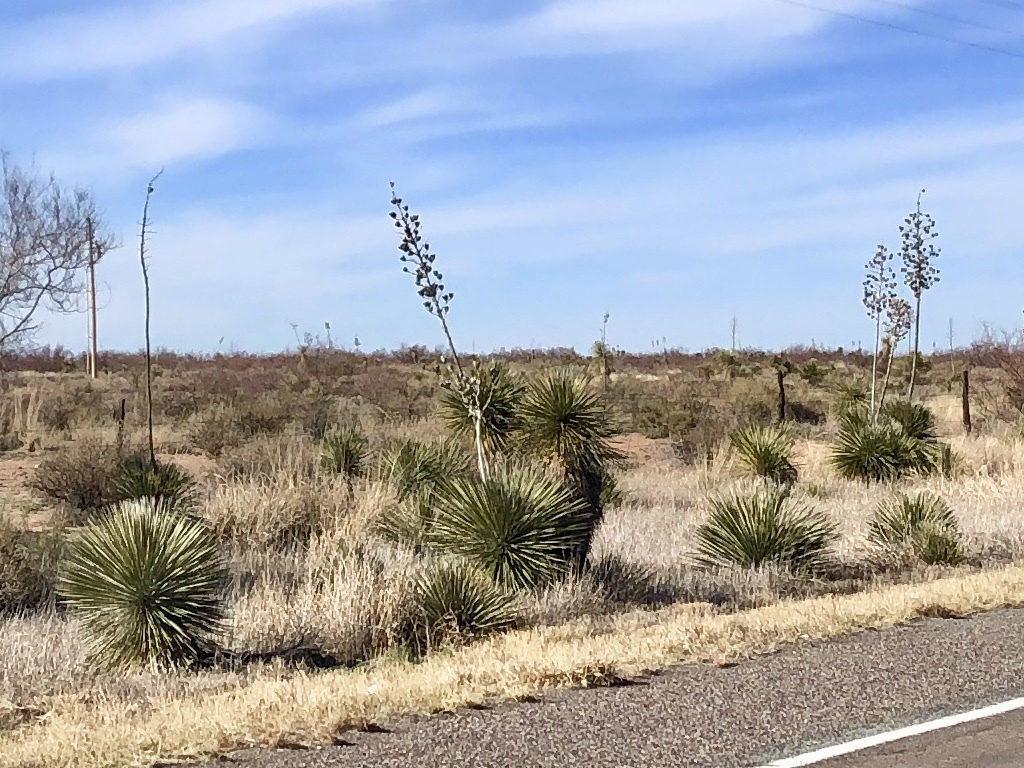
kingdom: Plantae
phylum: Tracheophyta
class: Liliopsida
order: Asparagales
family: Asparagaceae
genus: Yucca
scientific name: Yucca elata
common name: Palmella
